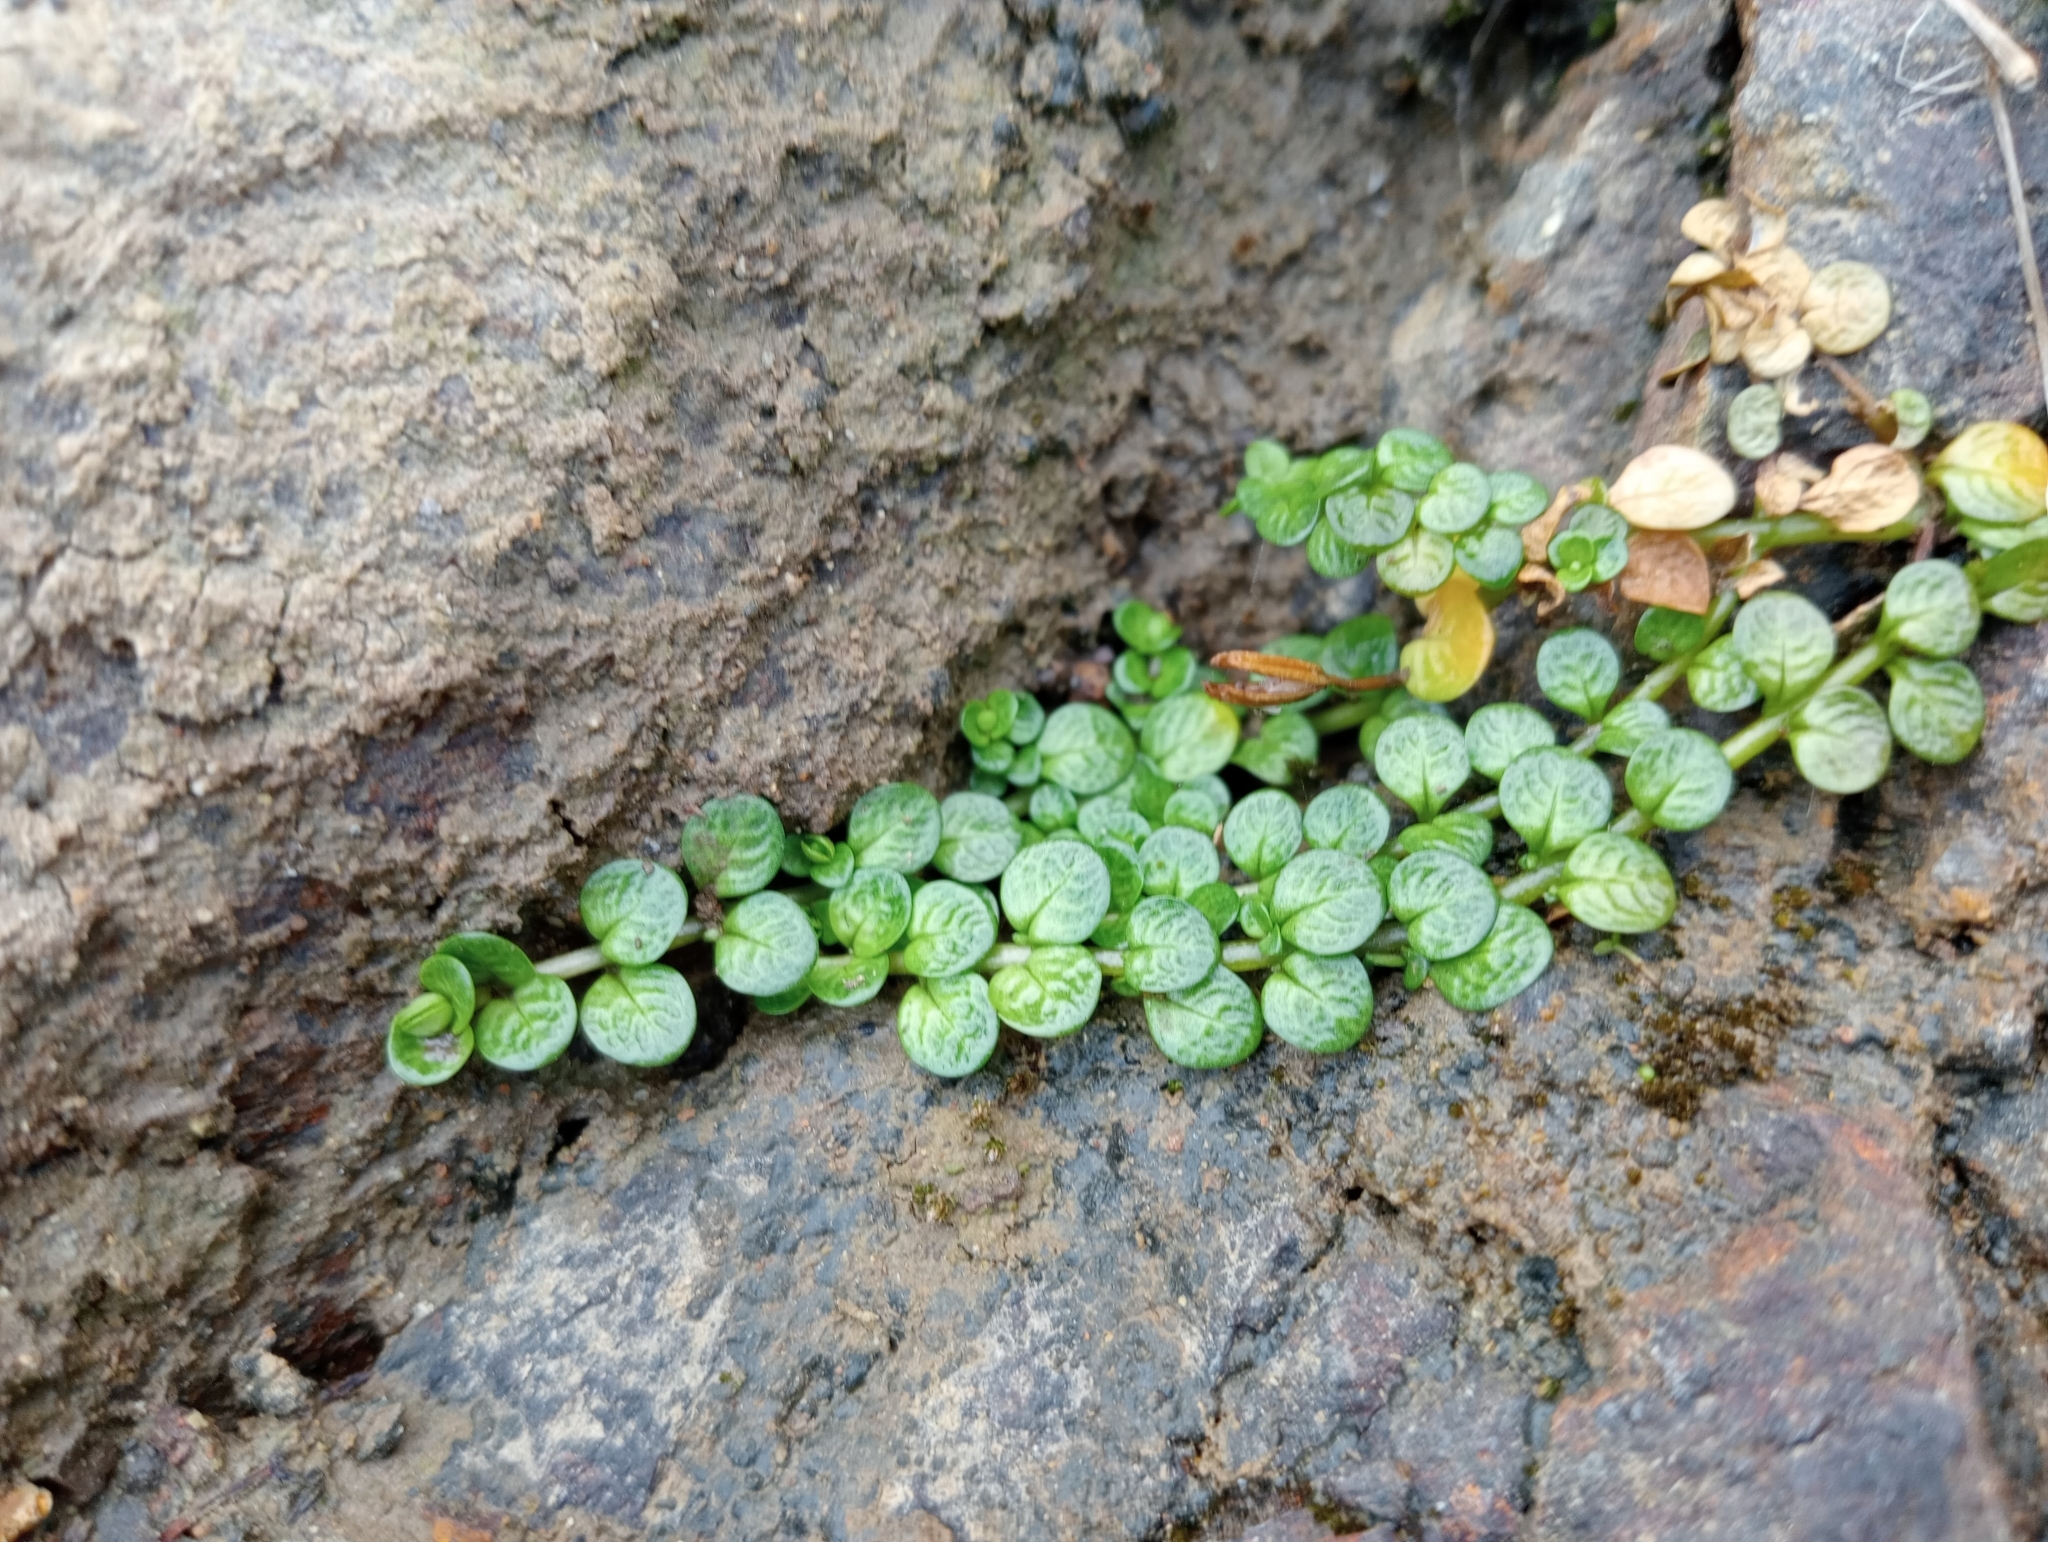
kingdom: Plantae
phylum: Tracheophyta
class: Magnoliopsida
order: Myrtales
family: Onagraceae
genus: Epilobium
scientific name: Epilobium komarovianum
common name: Bronzy willowherb
